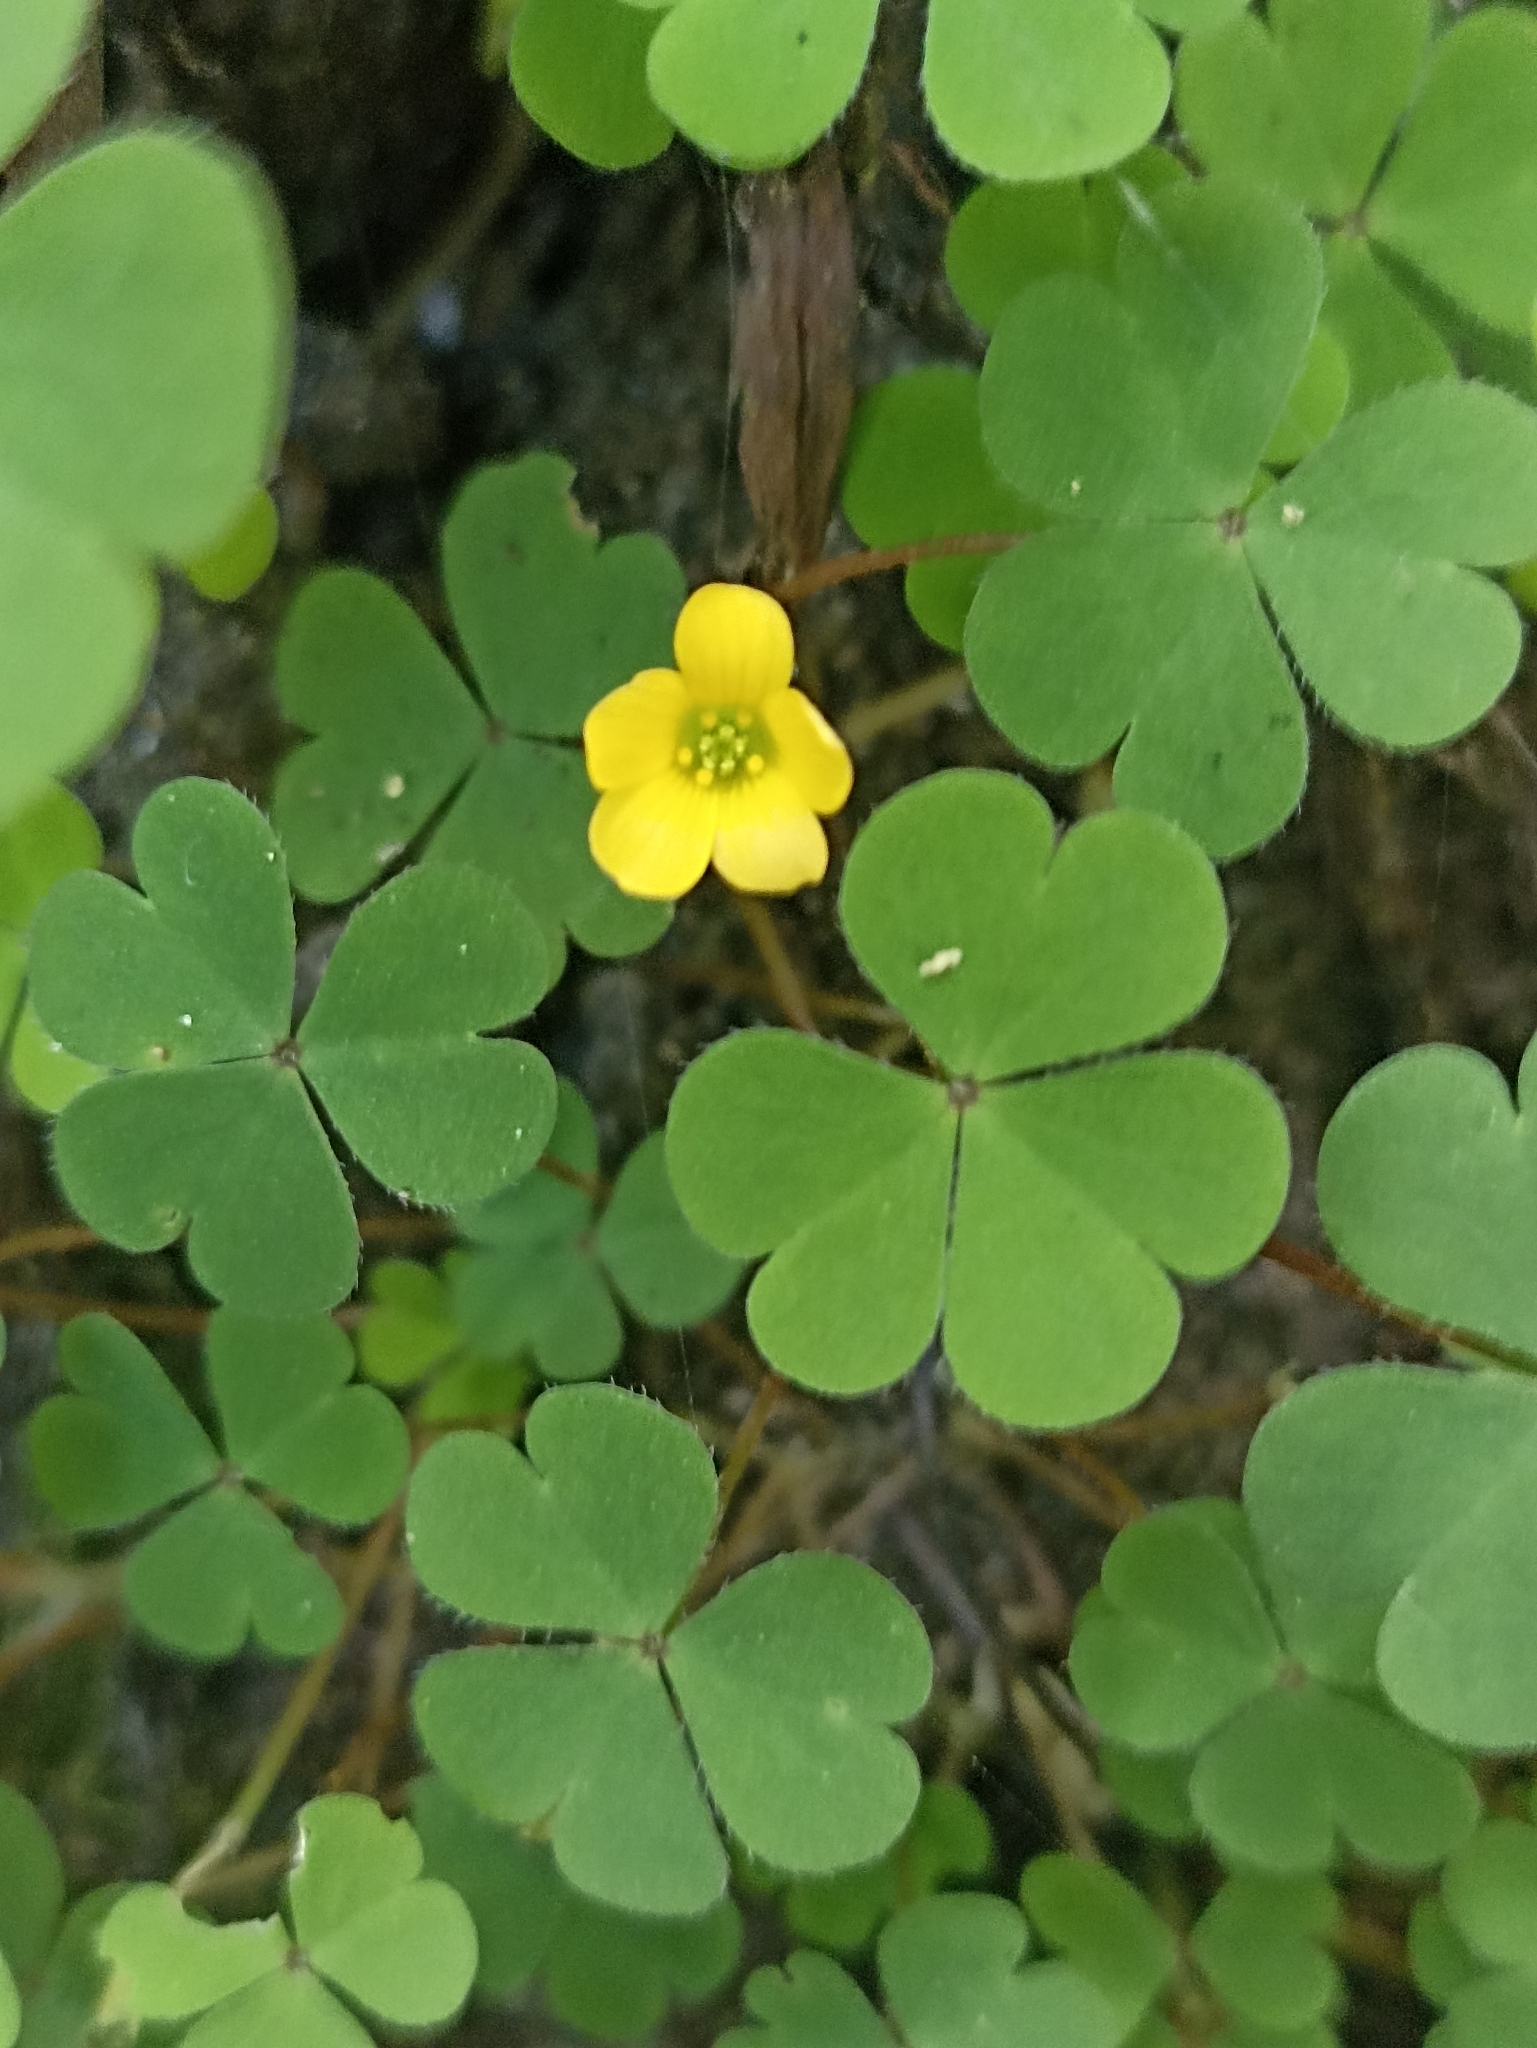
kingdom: Plantae
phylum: Tracheophyta
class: Magnoliopsida
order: Oxalidales
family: Oxalidaceae
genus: Oxalis
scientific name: Oxalis exilis
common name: Least yellow-sorrel
